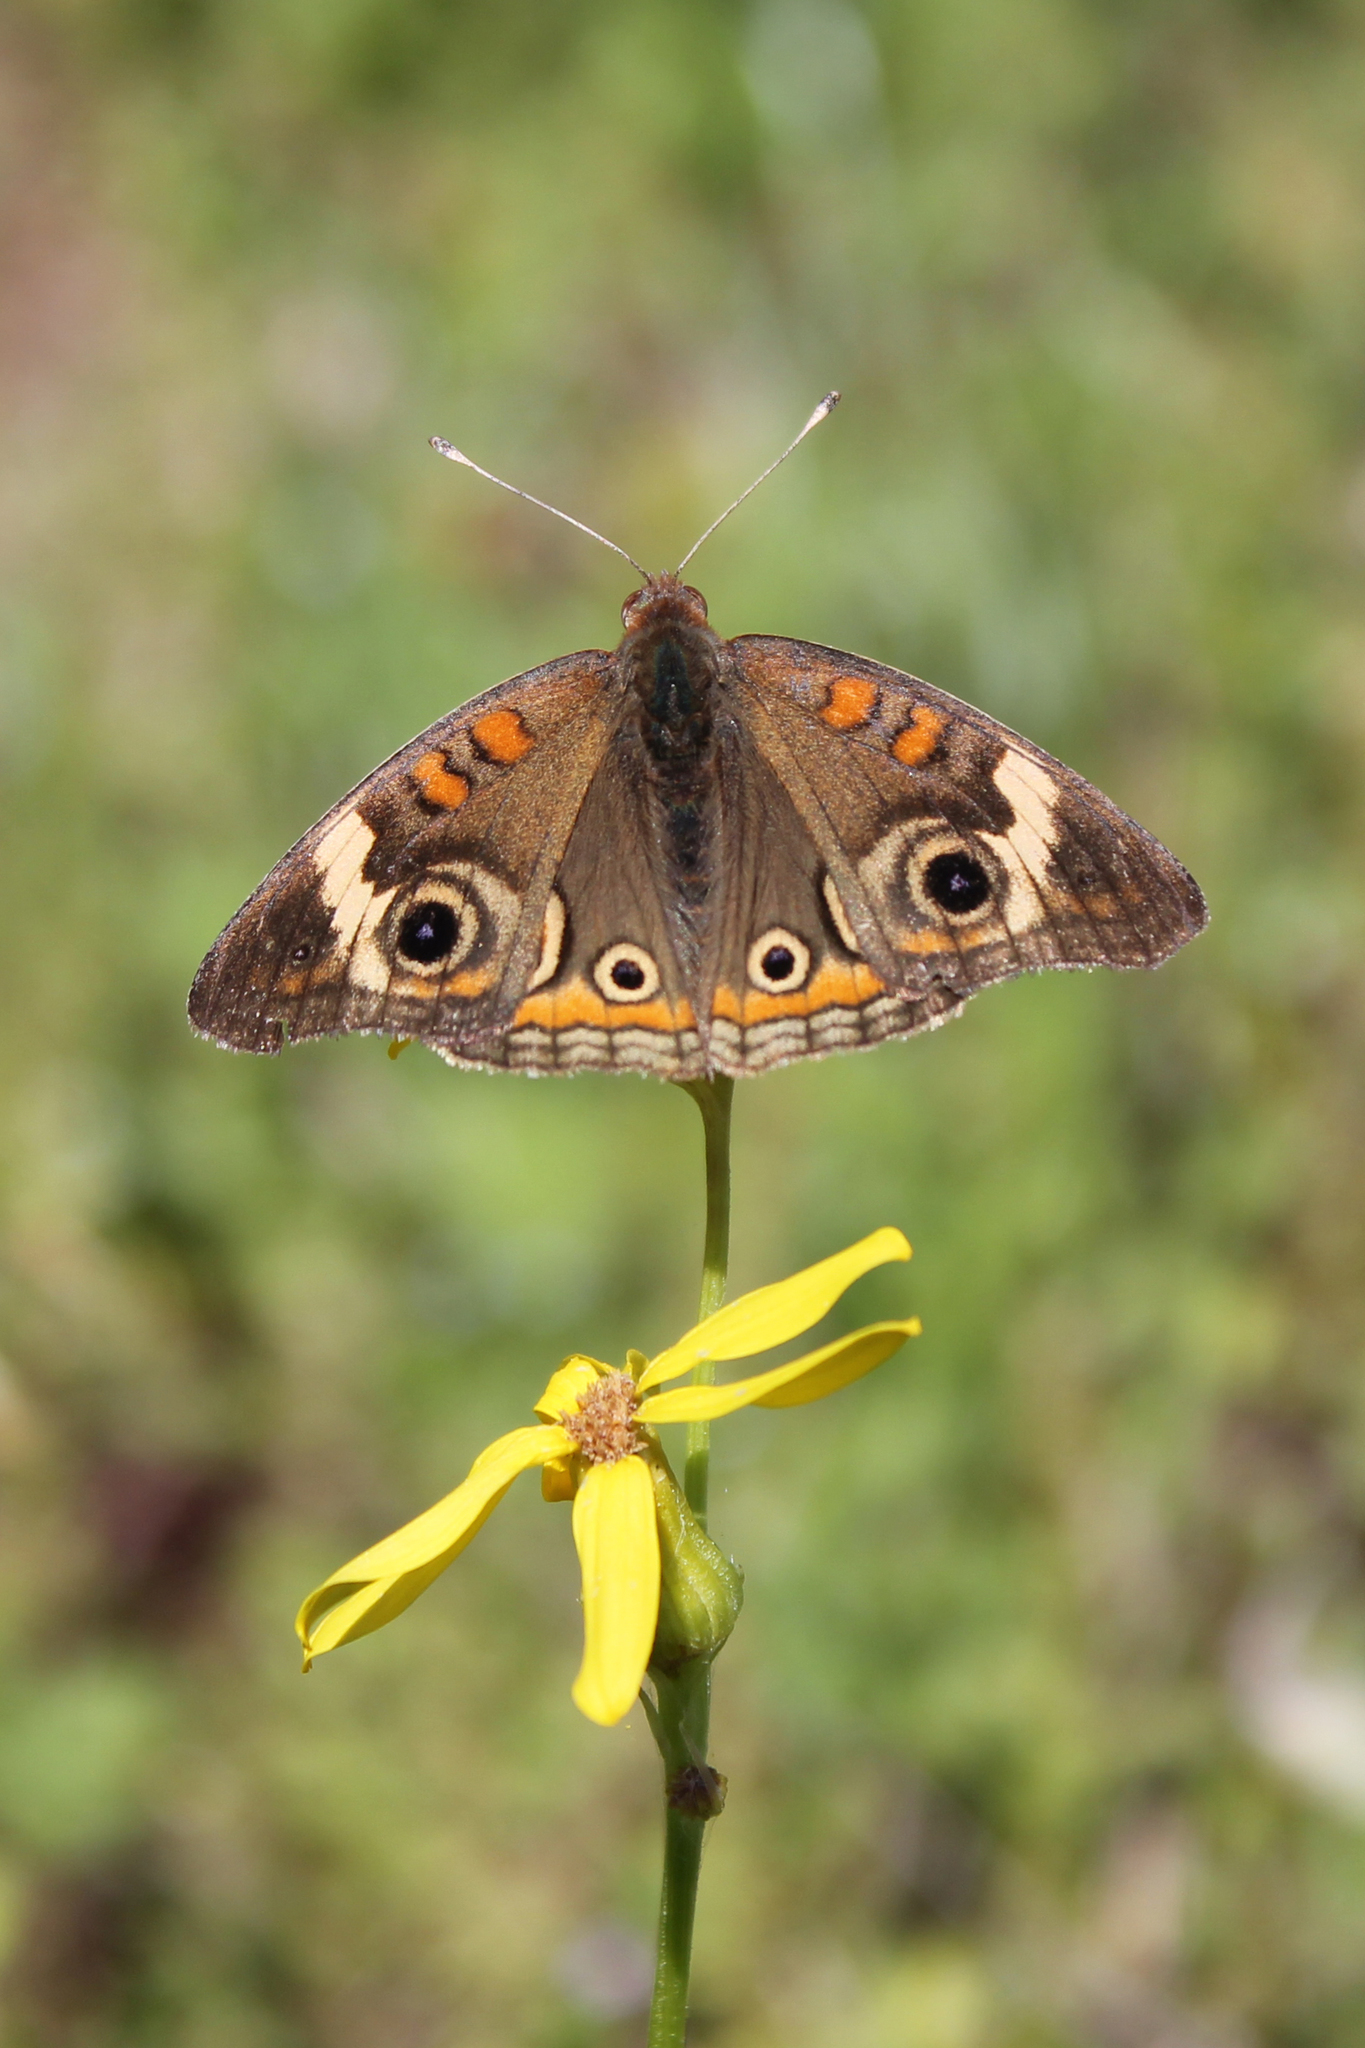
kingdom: Animalia
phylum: Arthropoda
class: Insecta
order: Lepidoptera
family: Nymphalidae
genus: Junonia
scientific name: Junonia coenia
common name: Common buckeye
